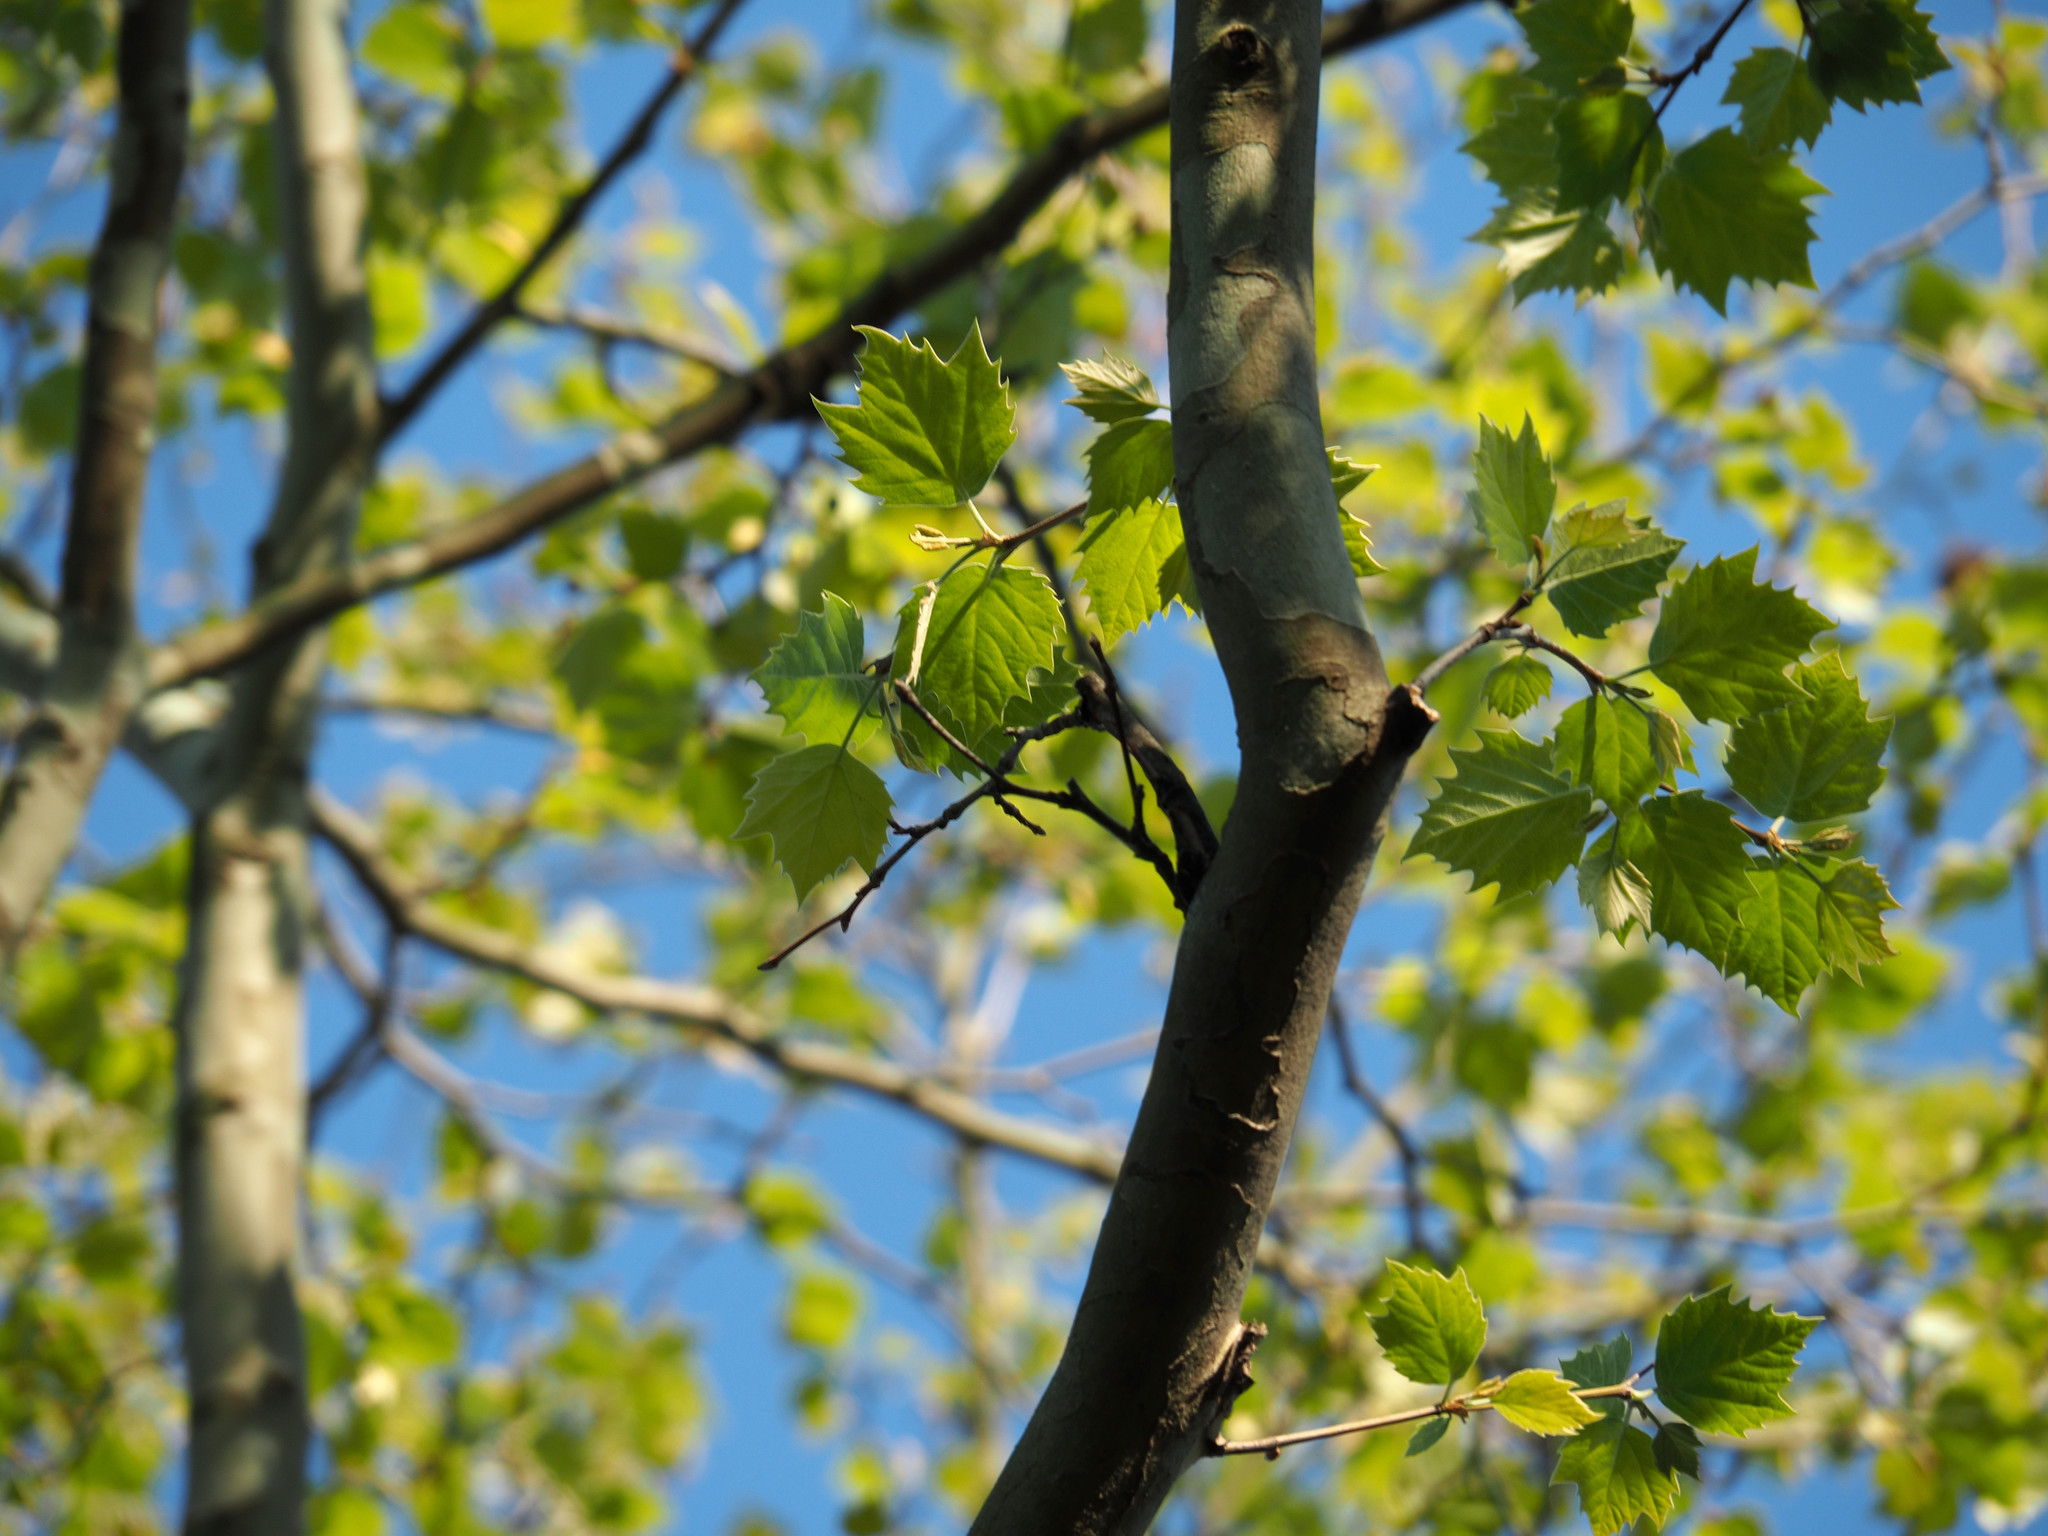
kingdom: Plantae
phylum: Tracheophyta
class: Magnoliopsida
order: Proteales
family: Platanaceae
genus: Platanus
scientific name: Platanus occidentalis
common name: American sycamore
